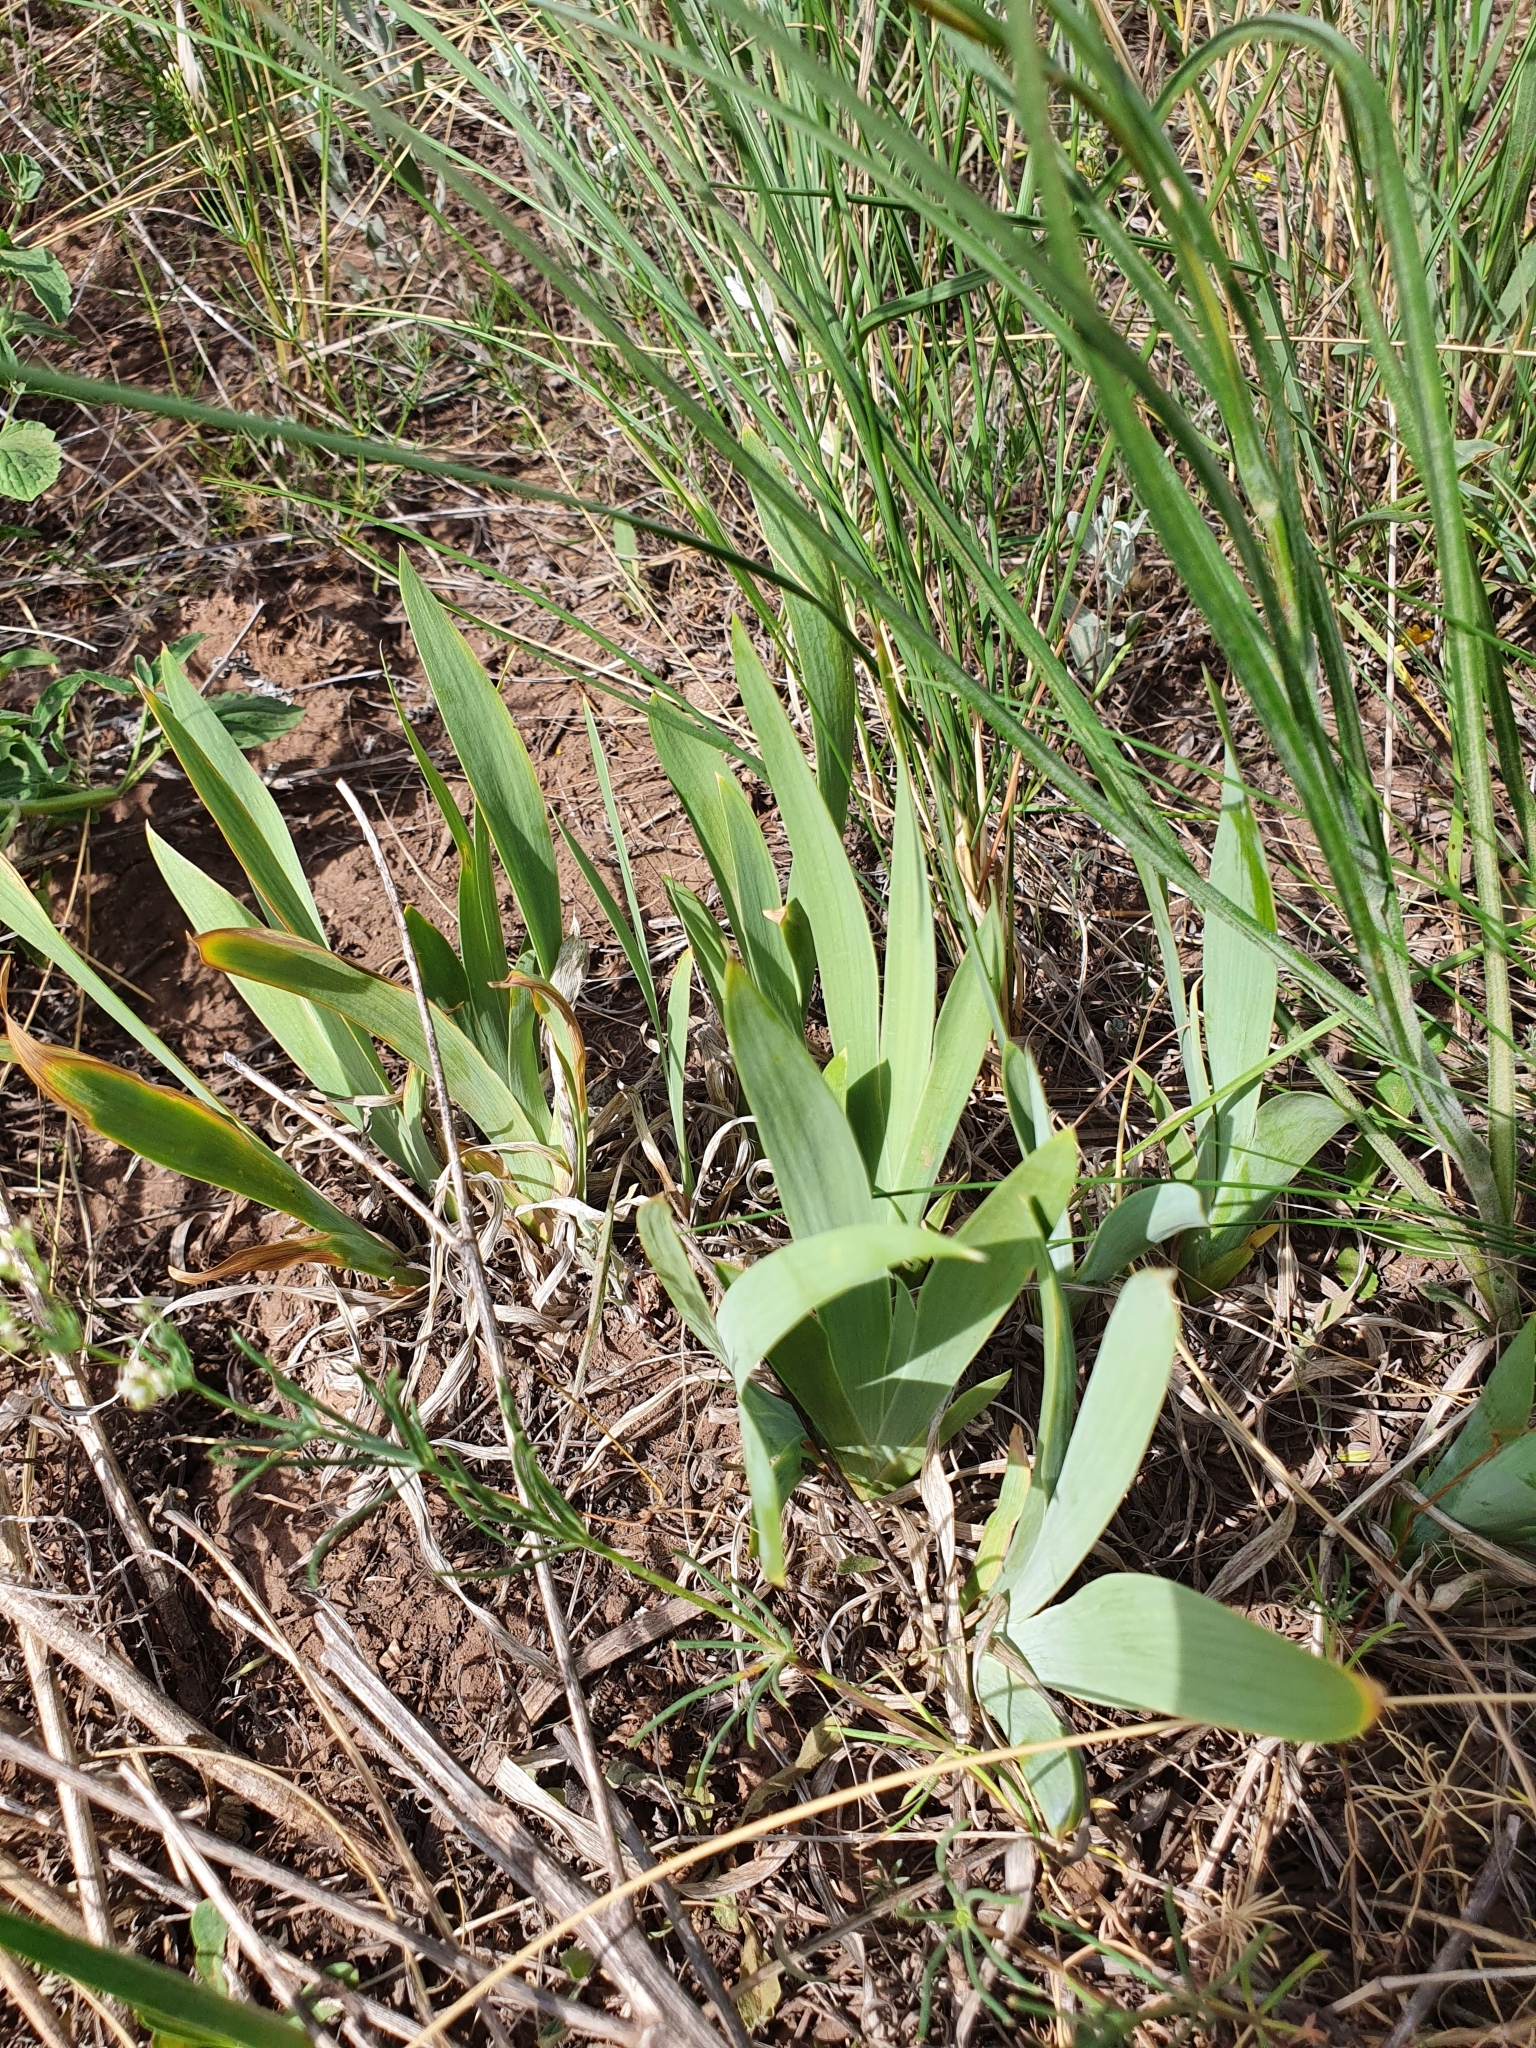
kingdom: Plantae
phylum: Tracheophyta
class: Liliopsida
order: Asparagales
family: Iridaceae
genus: Iris
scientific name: Iris pumila
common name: Dwarf iris
